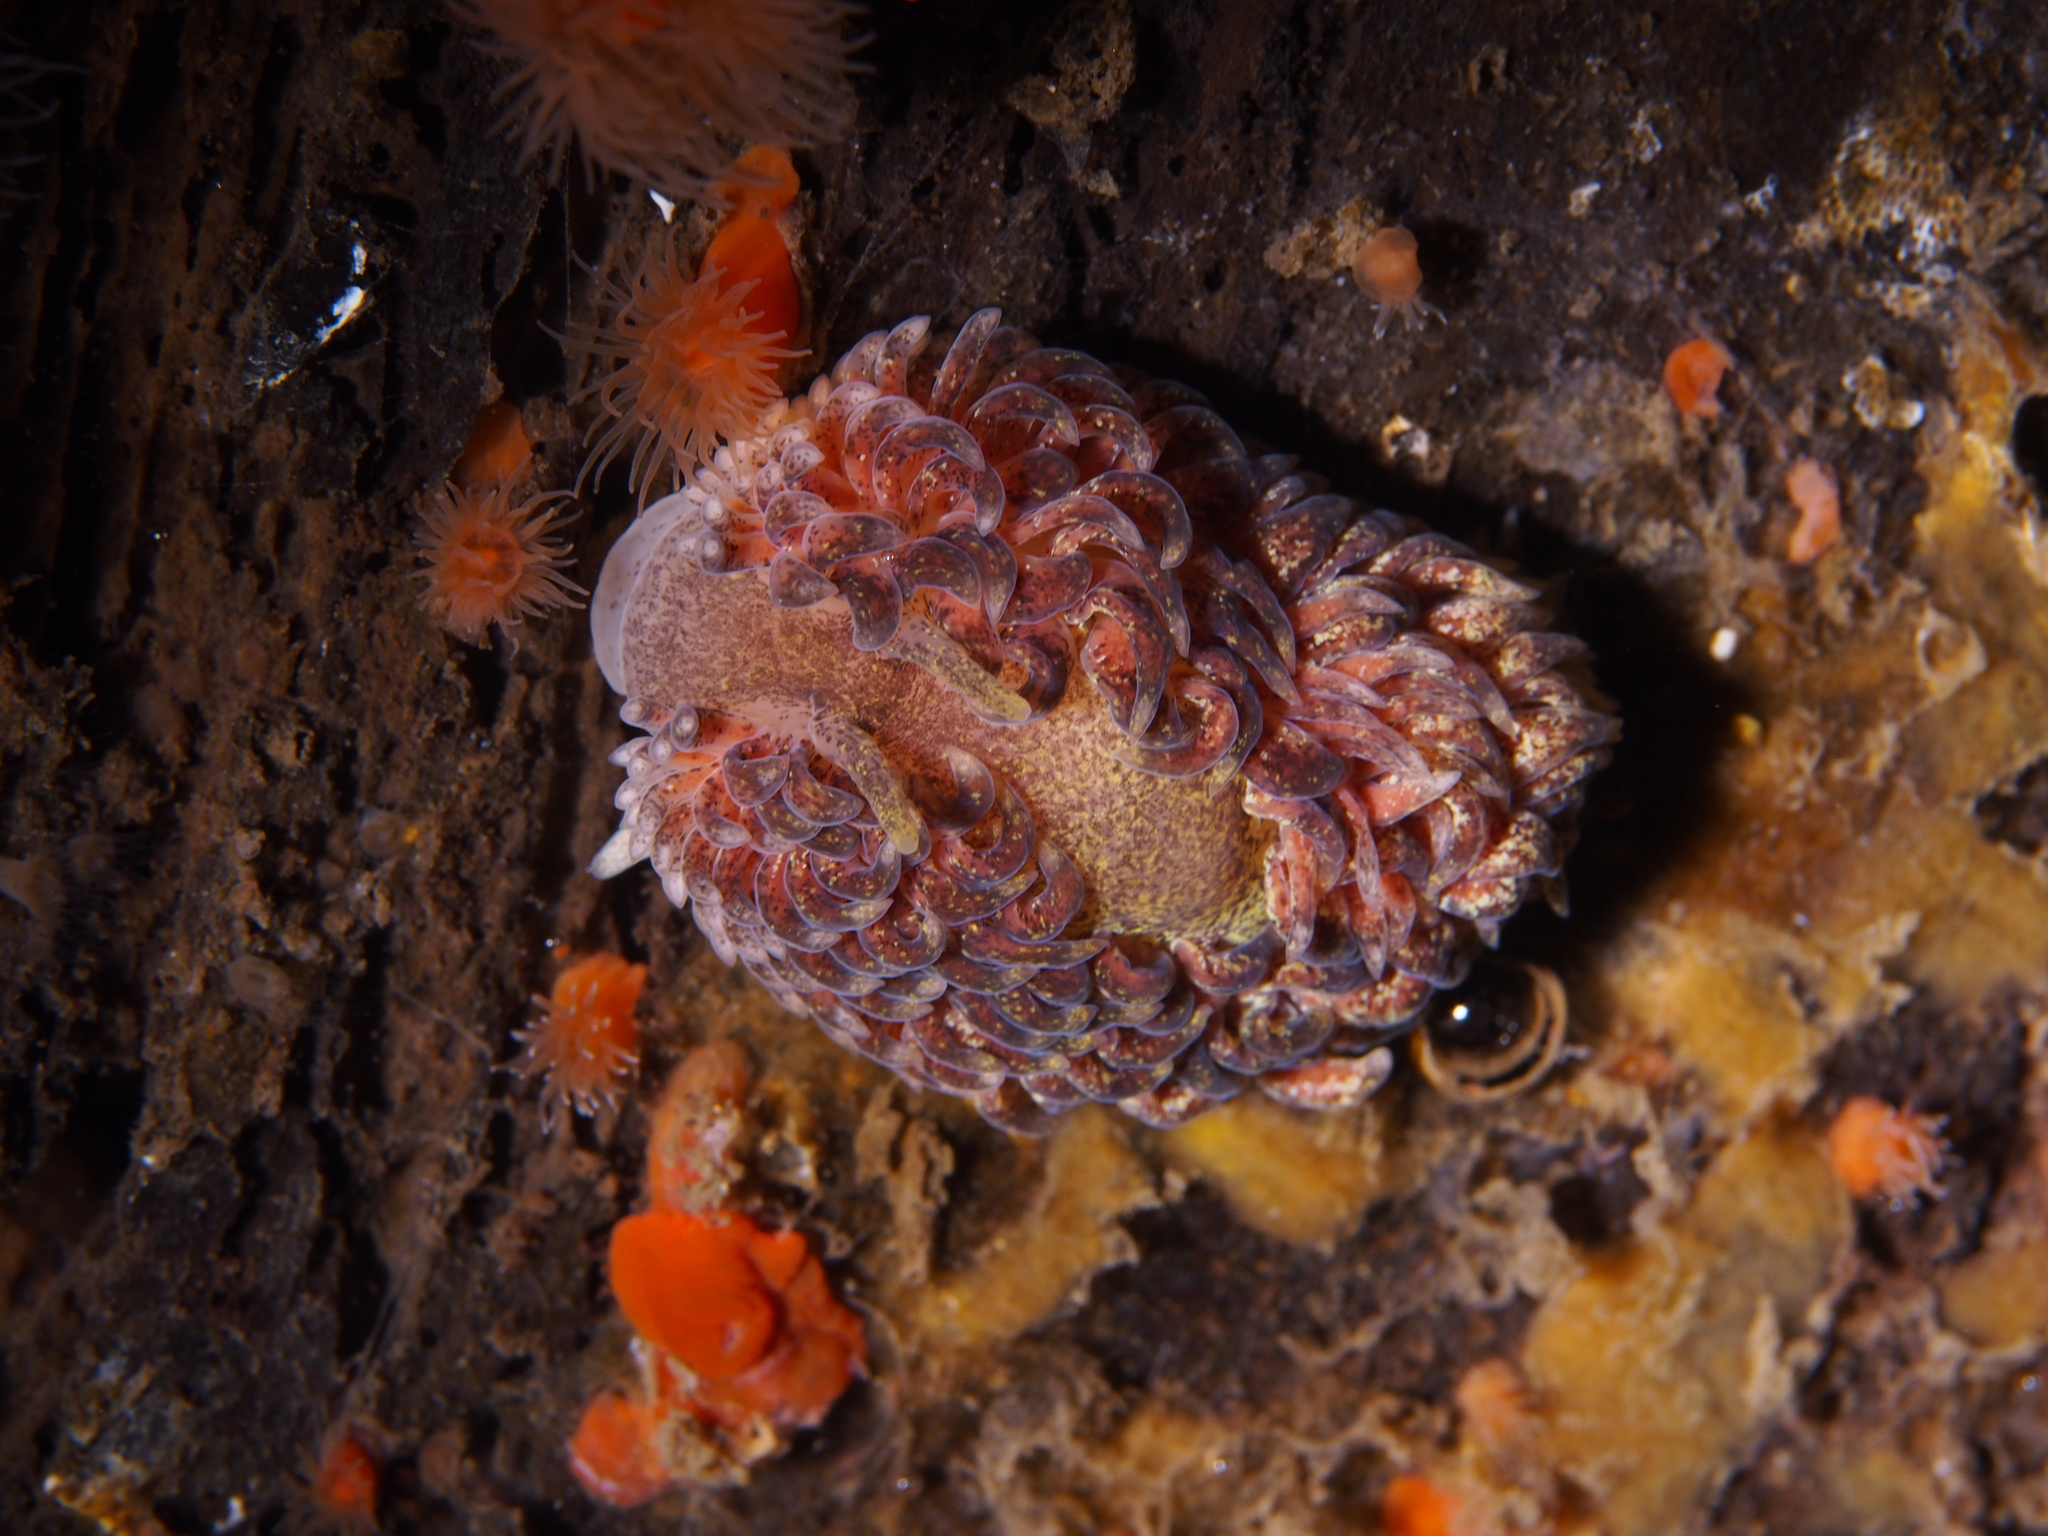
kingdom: Animalia
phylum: Mollusca
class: Gastropoda
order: Nudibranchia
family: Aeolidiidae
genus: Aeolidia
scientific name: Aeolidia papillosa
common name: Common grey sea slug
